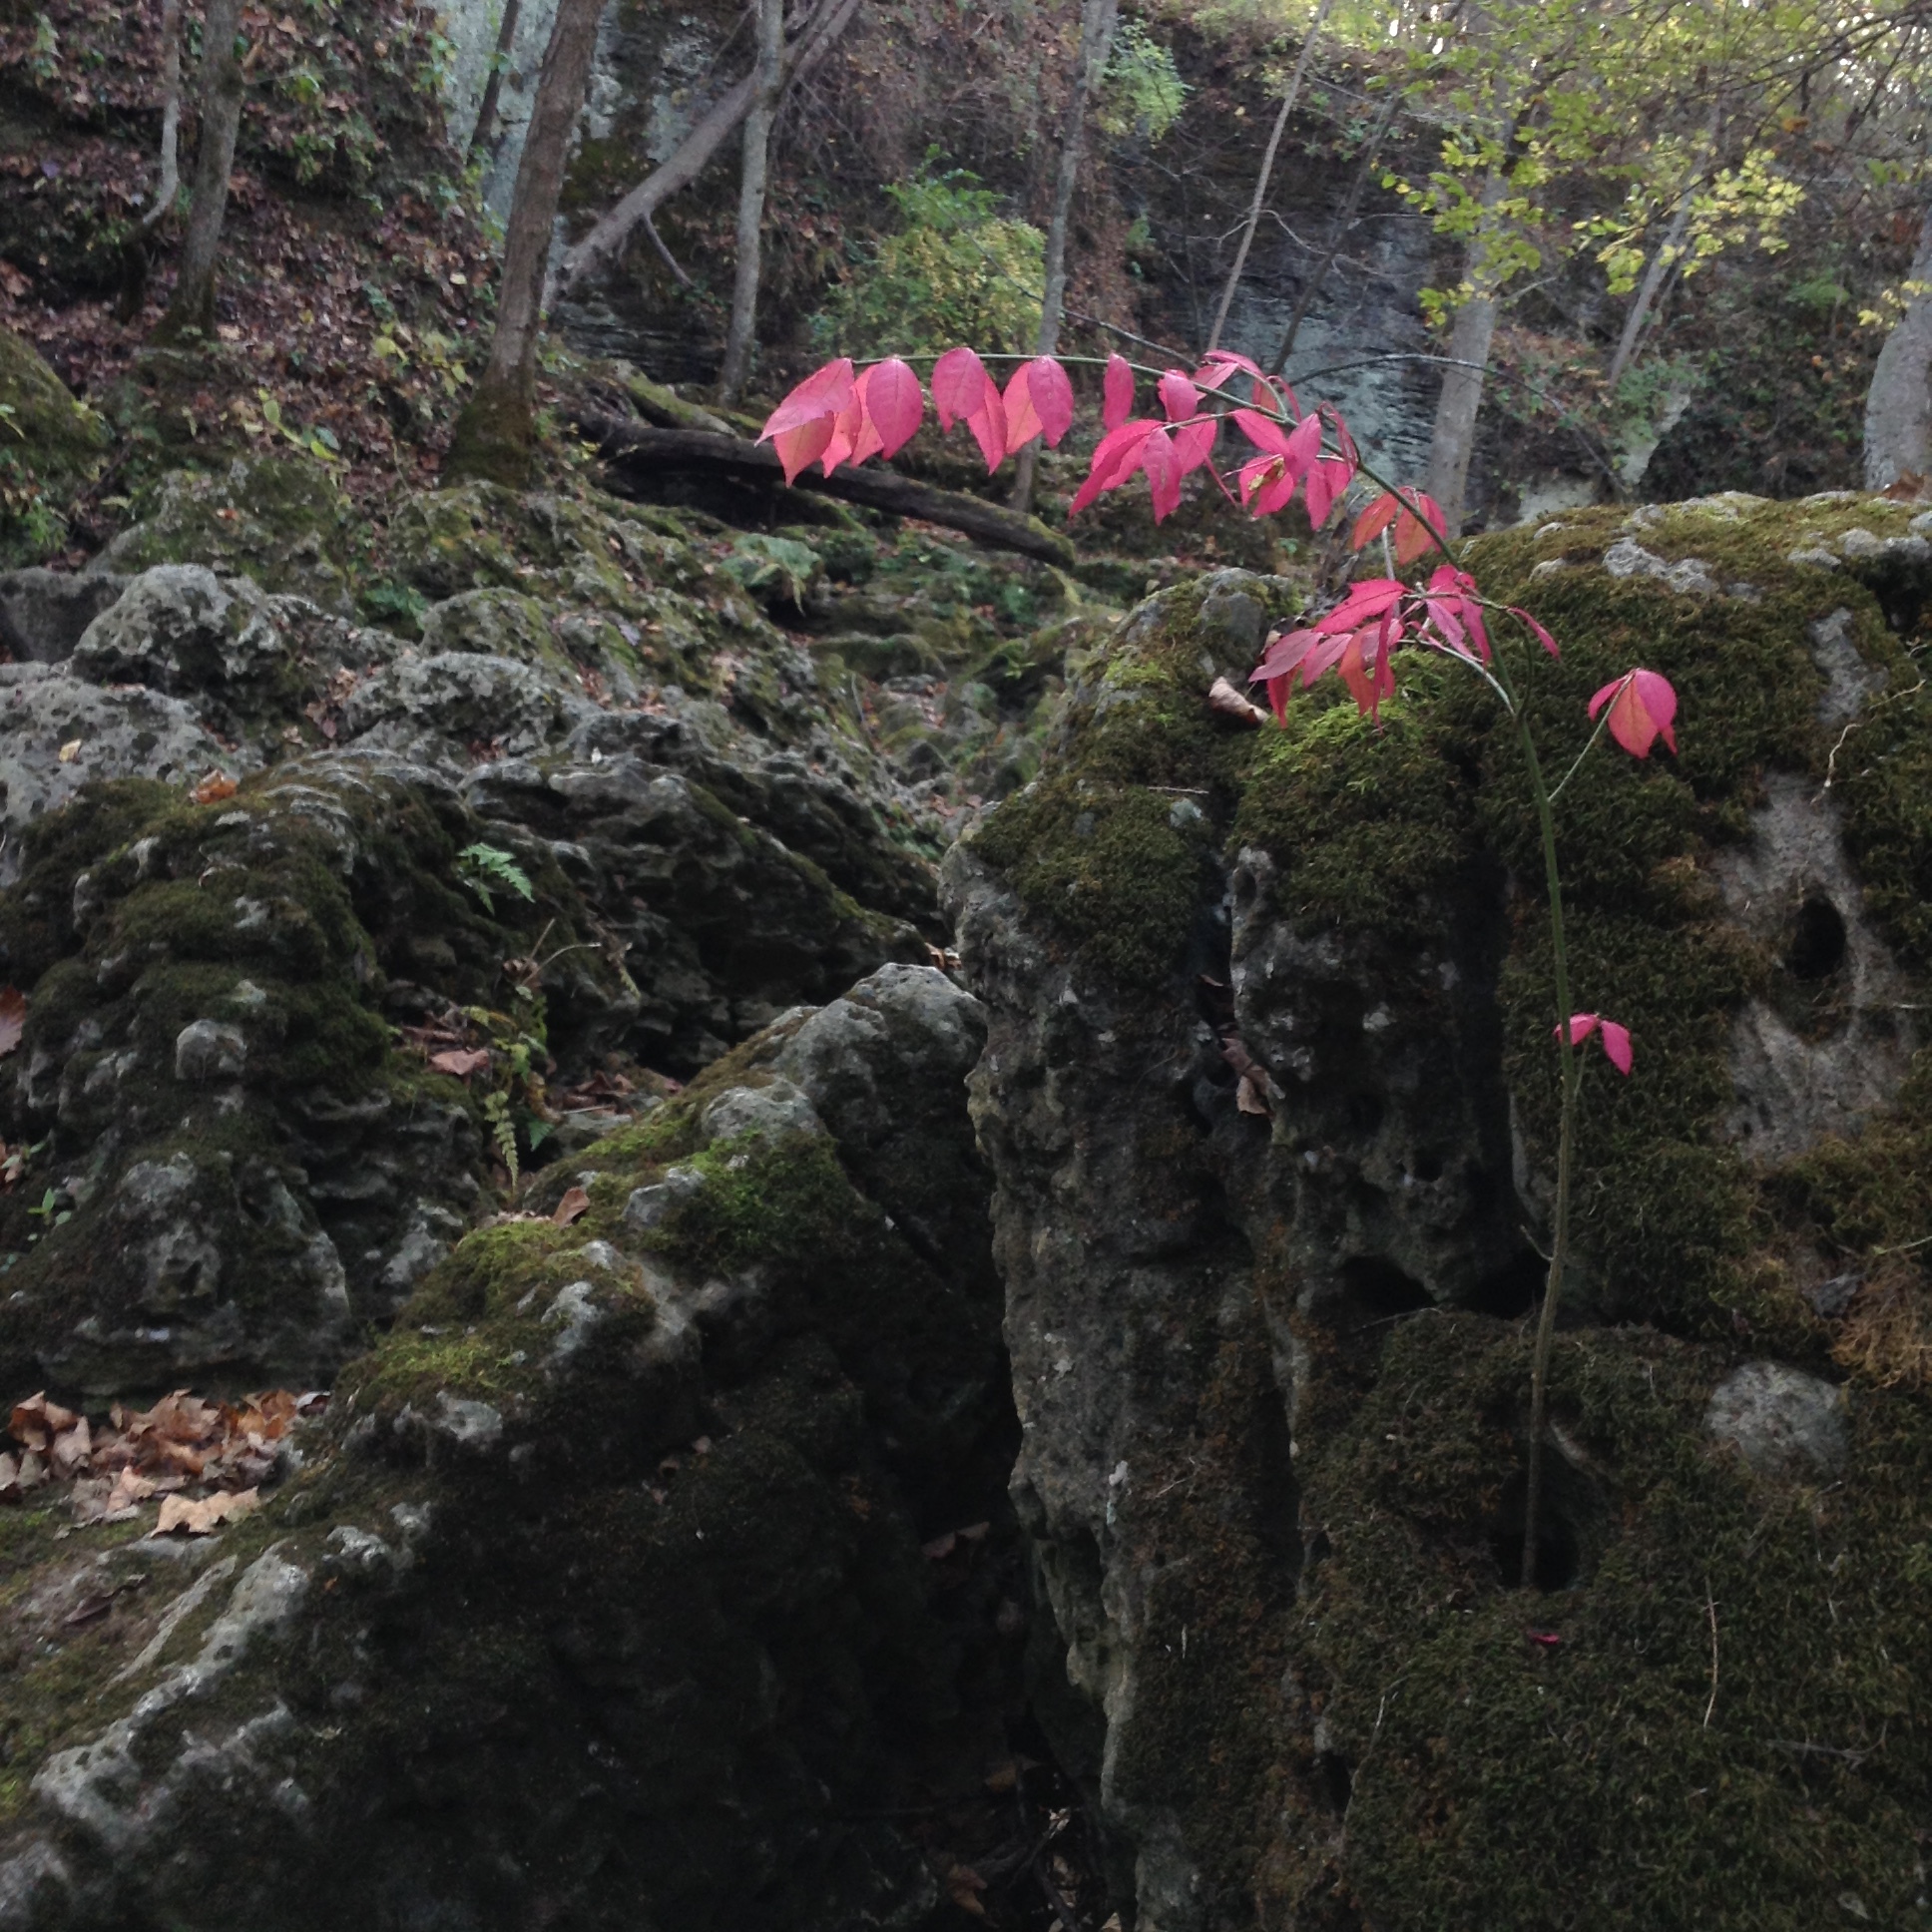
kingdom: Plantae
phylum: Tracheophyta
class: Magnoliopsida
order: Celastrales
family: Celastraceae
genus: Euonymus
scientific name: Euonymus alatus
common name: Winged euonymus
